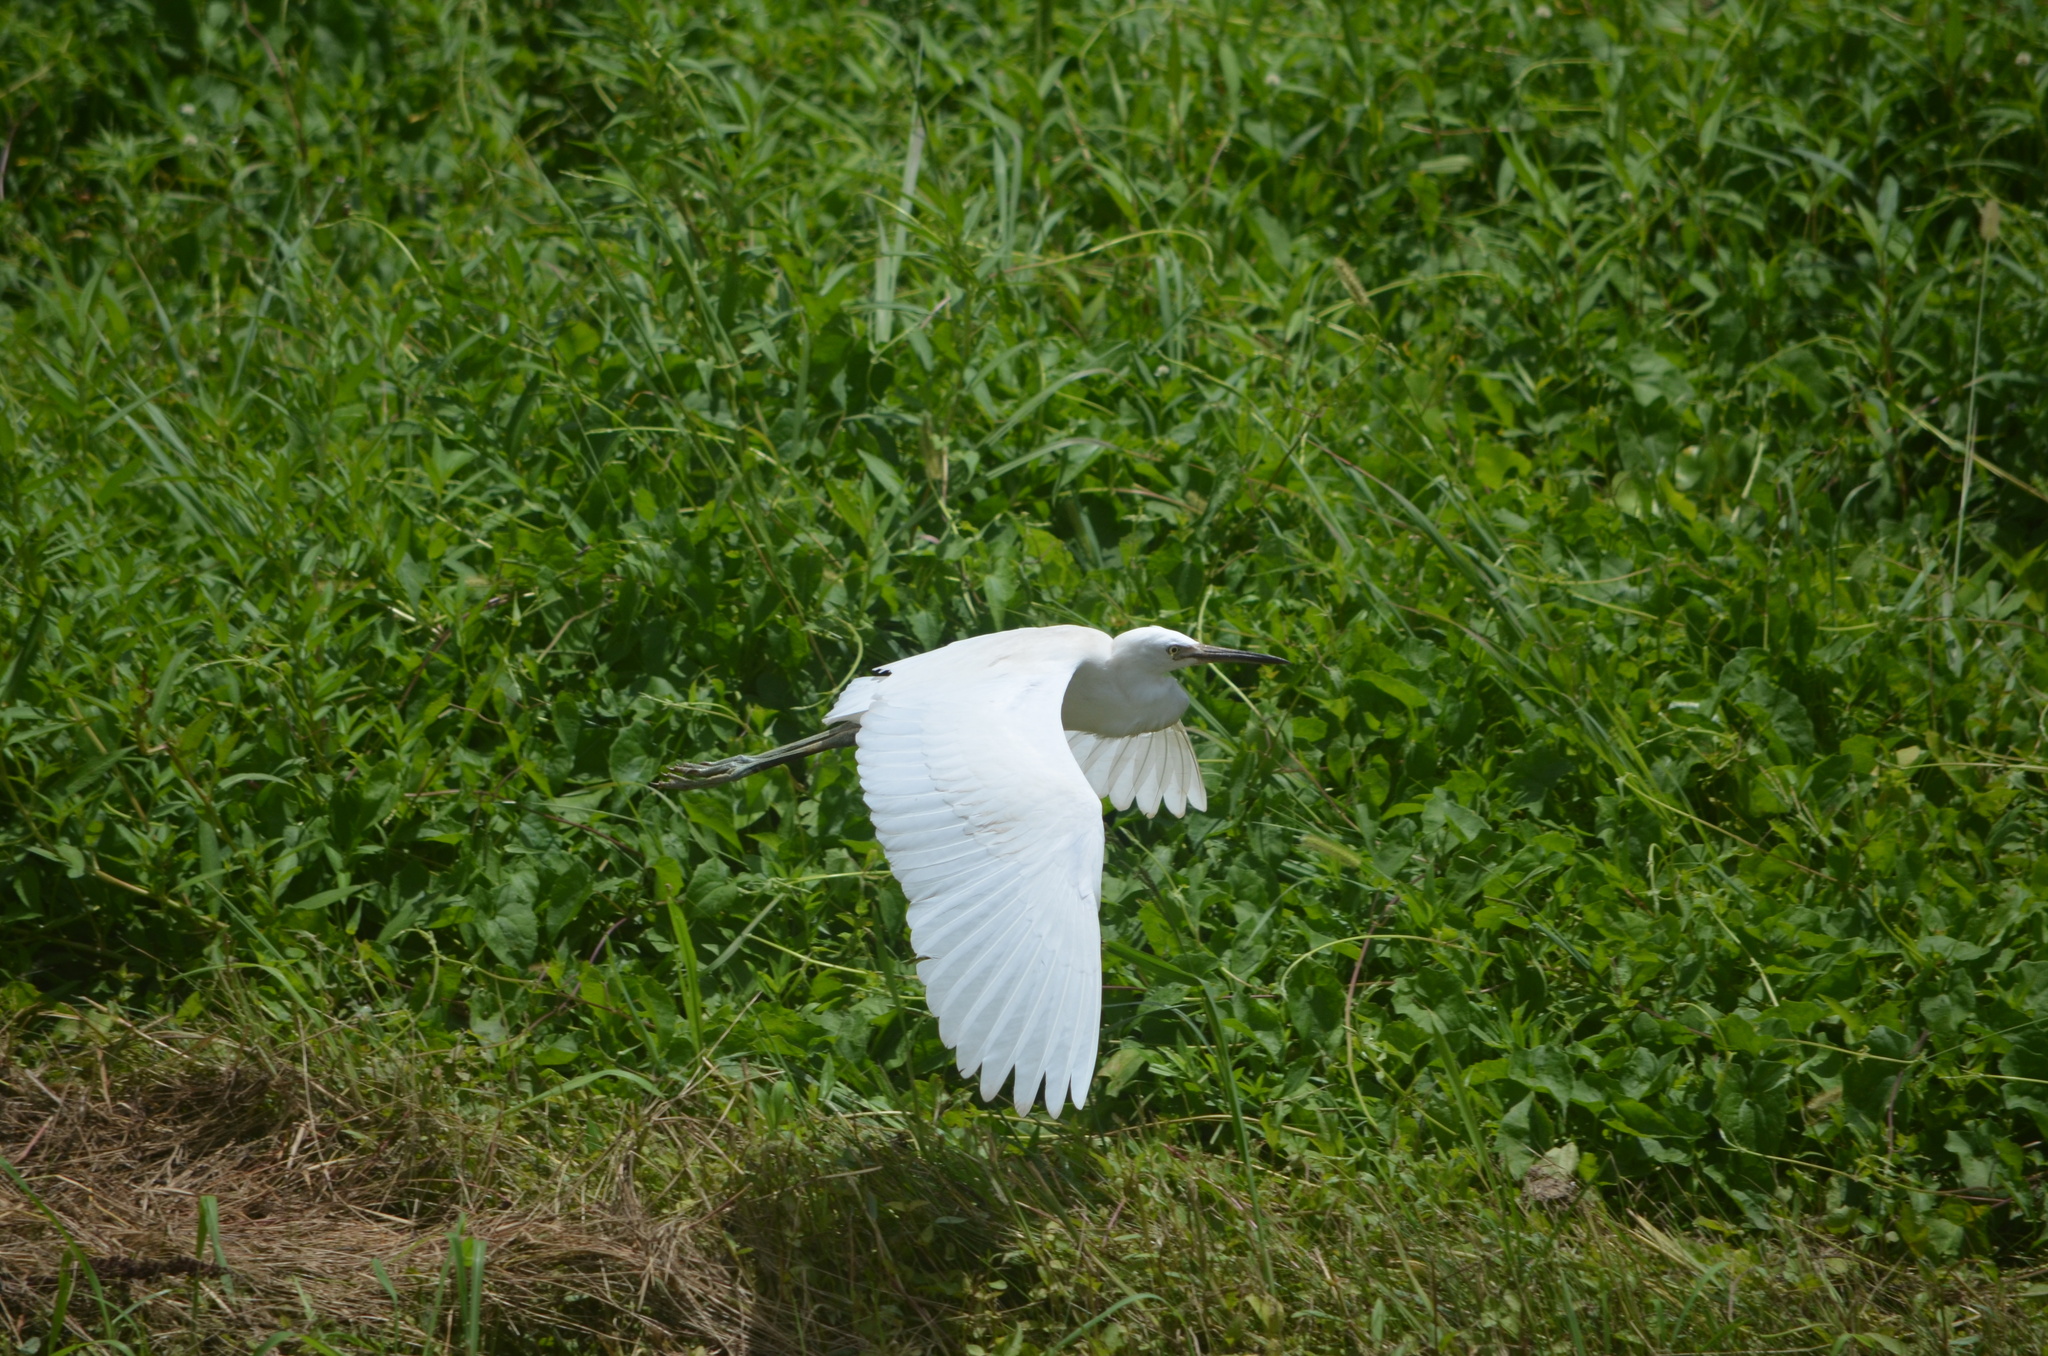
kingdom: Animalia
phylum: Chordata
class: Aves
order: Pelecaniformes
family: Ardeidae
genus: Egretta
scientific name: Egretta caerulea
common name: Little blue heron
